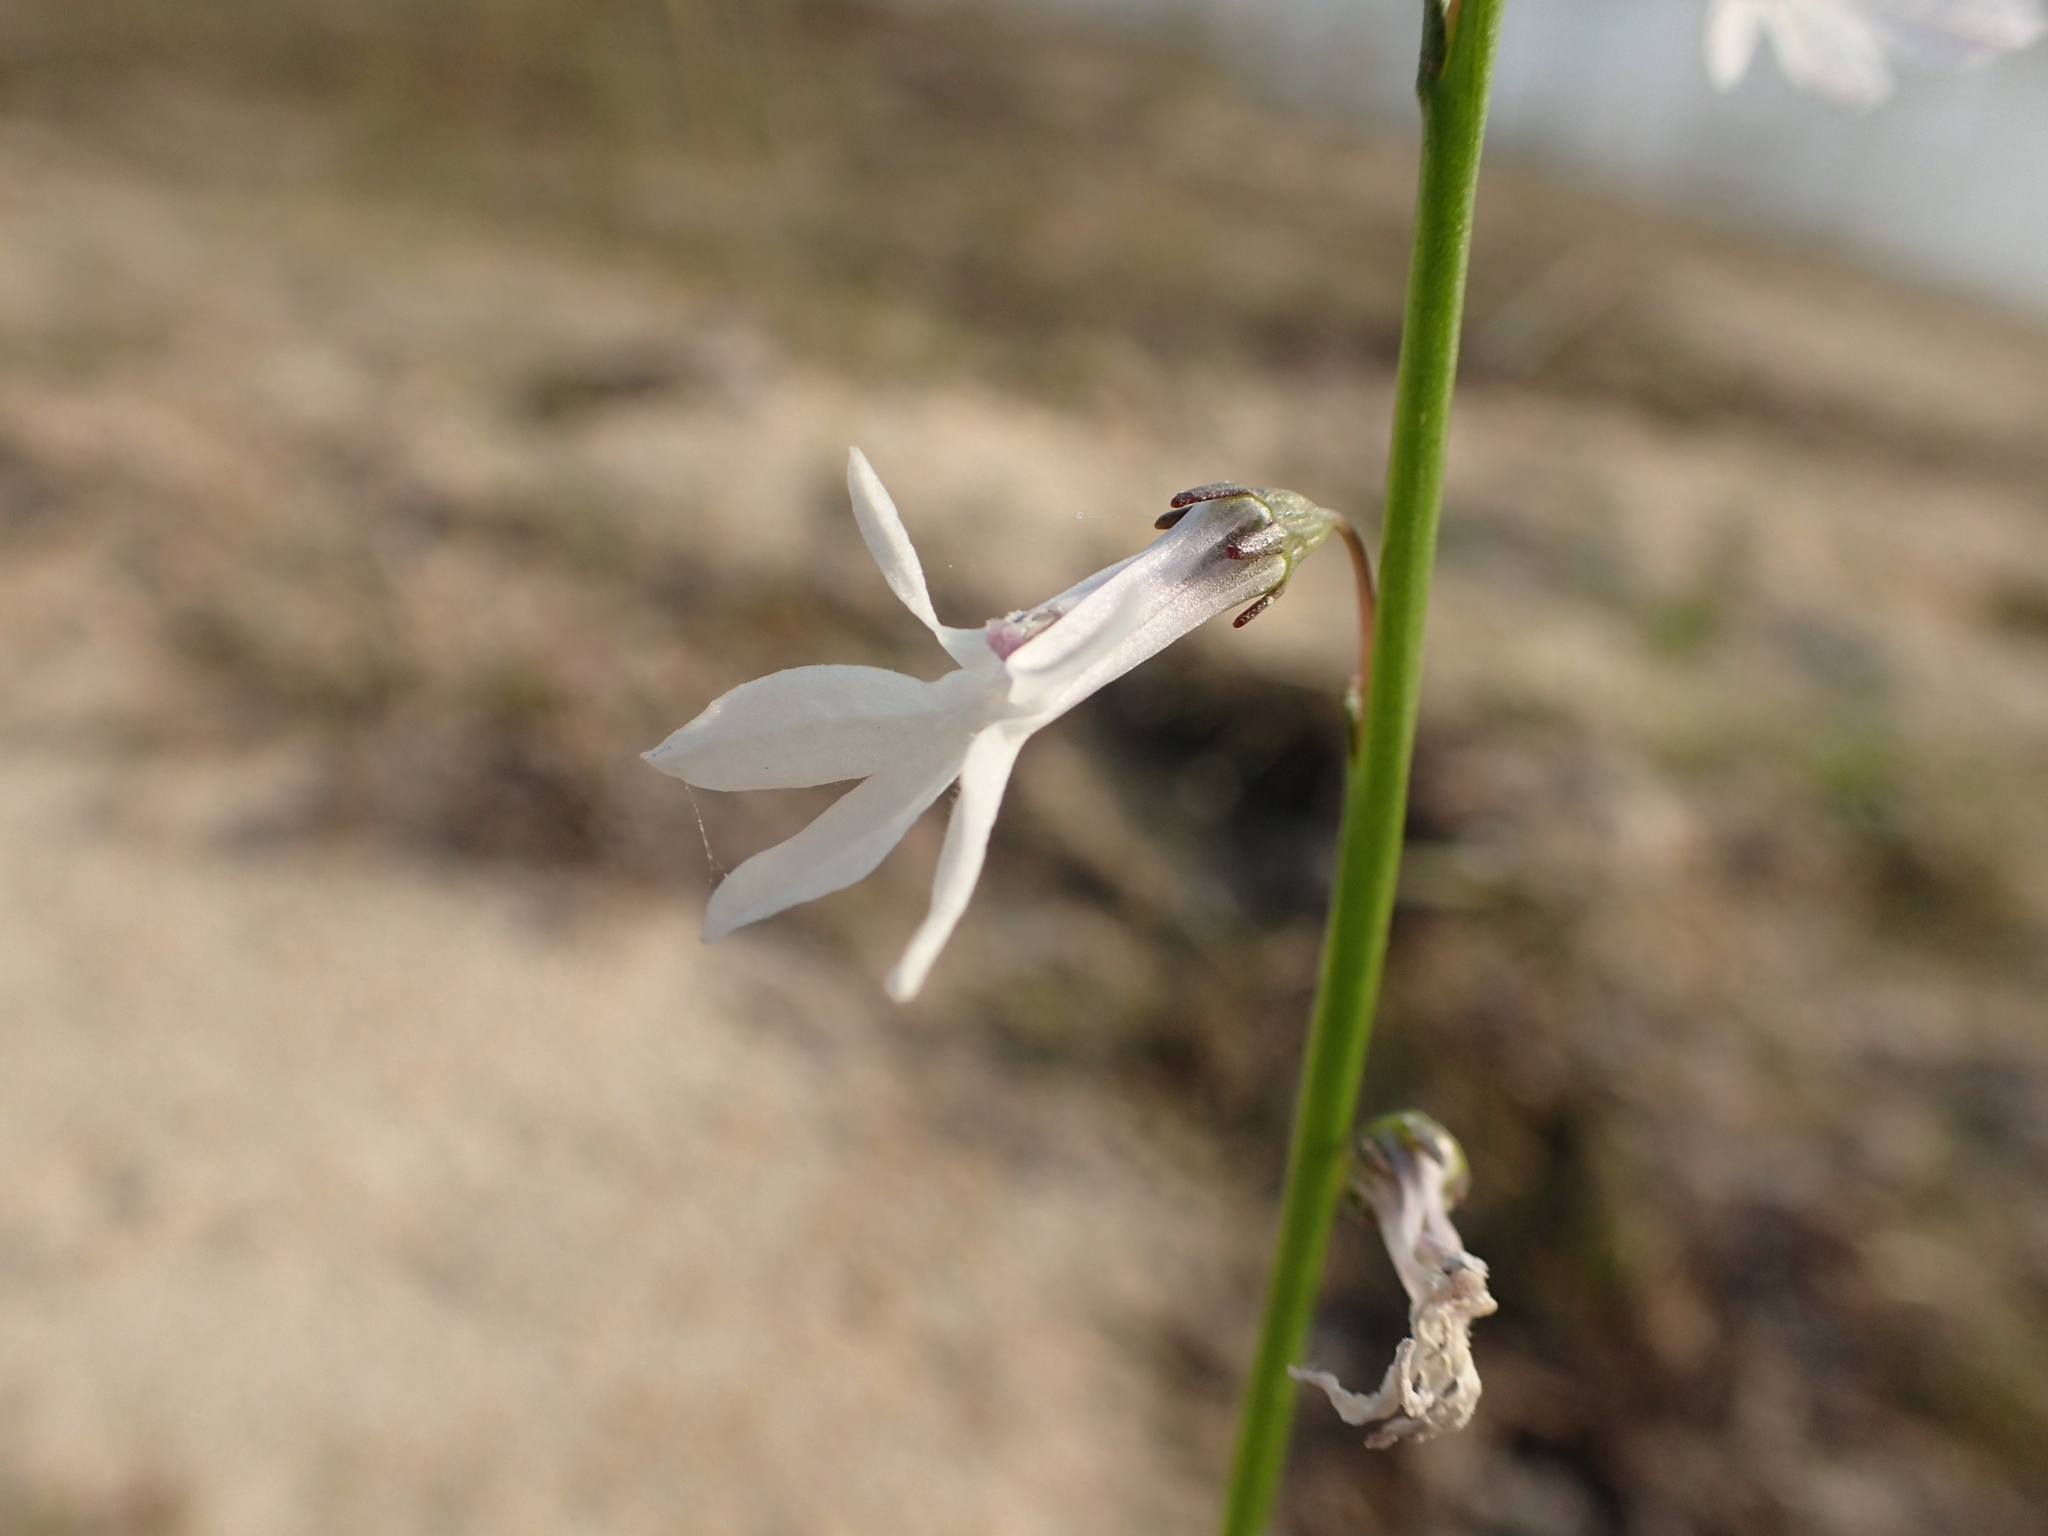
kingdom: Plantae
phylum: Tracheophyta
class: Magnoliopsida
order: Asterales
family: Campanulaceae
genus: Lobelia
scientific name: Lobelia dortmanna
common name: Water lobelia
